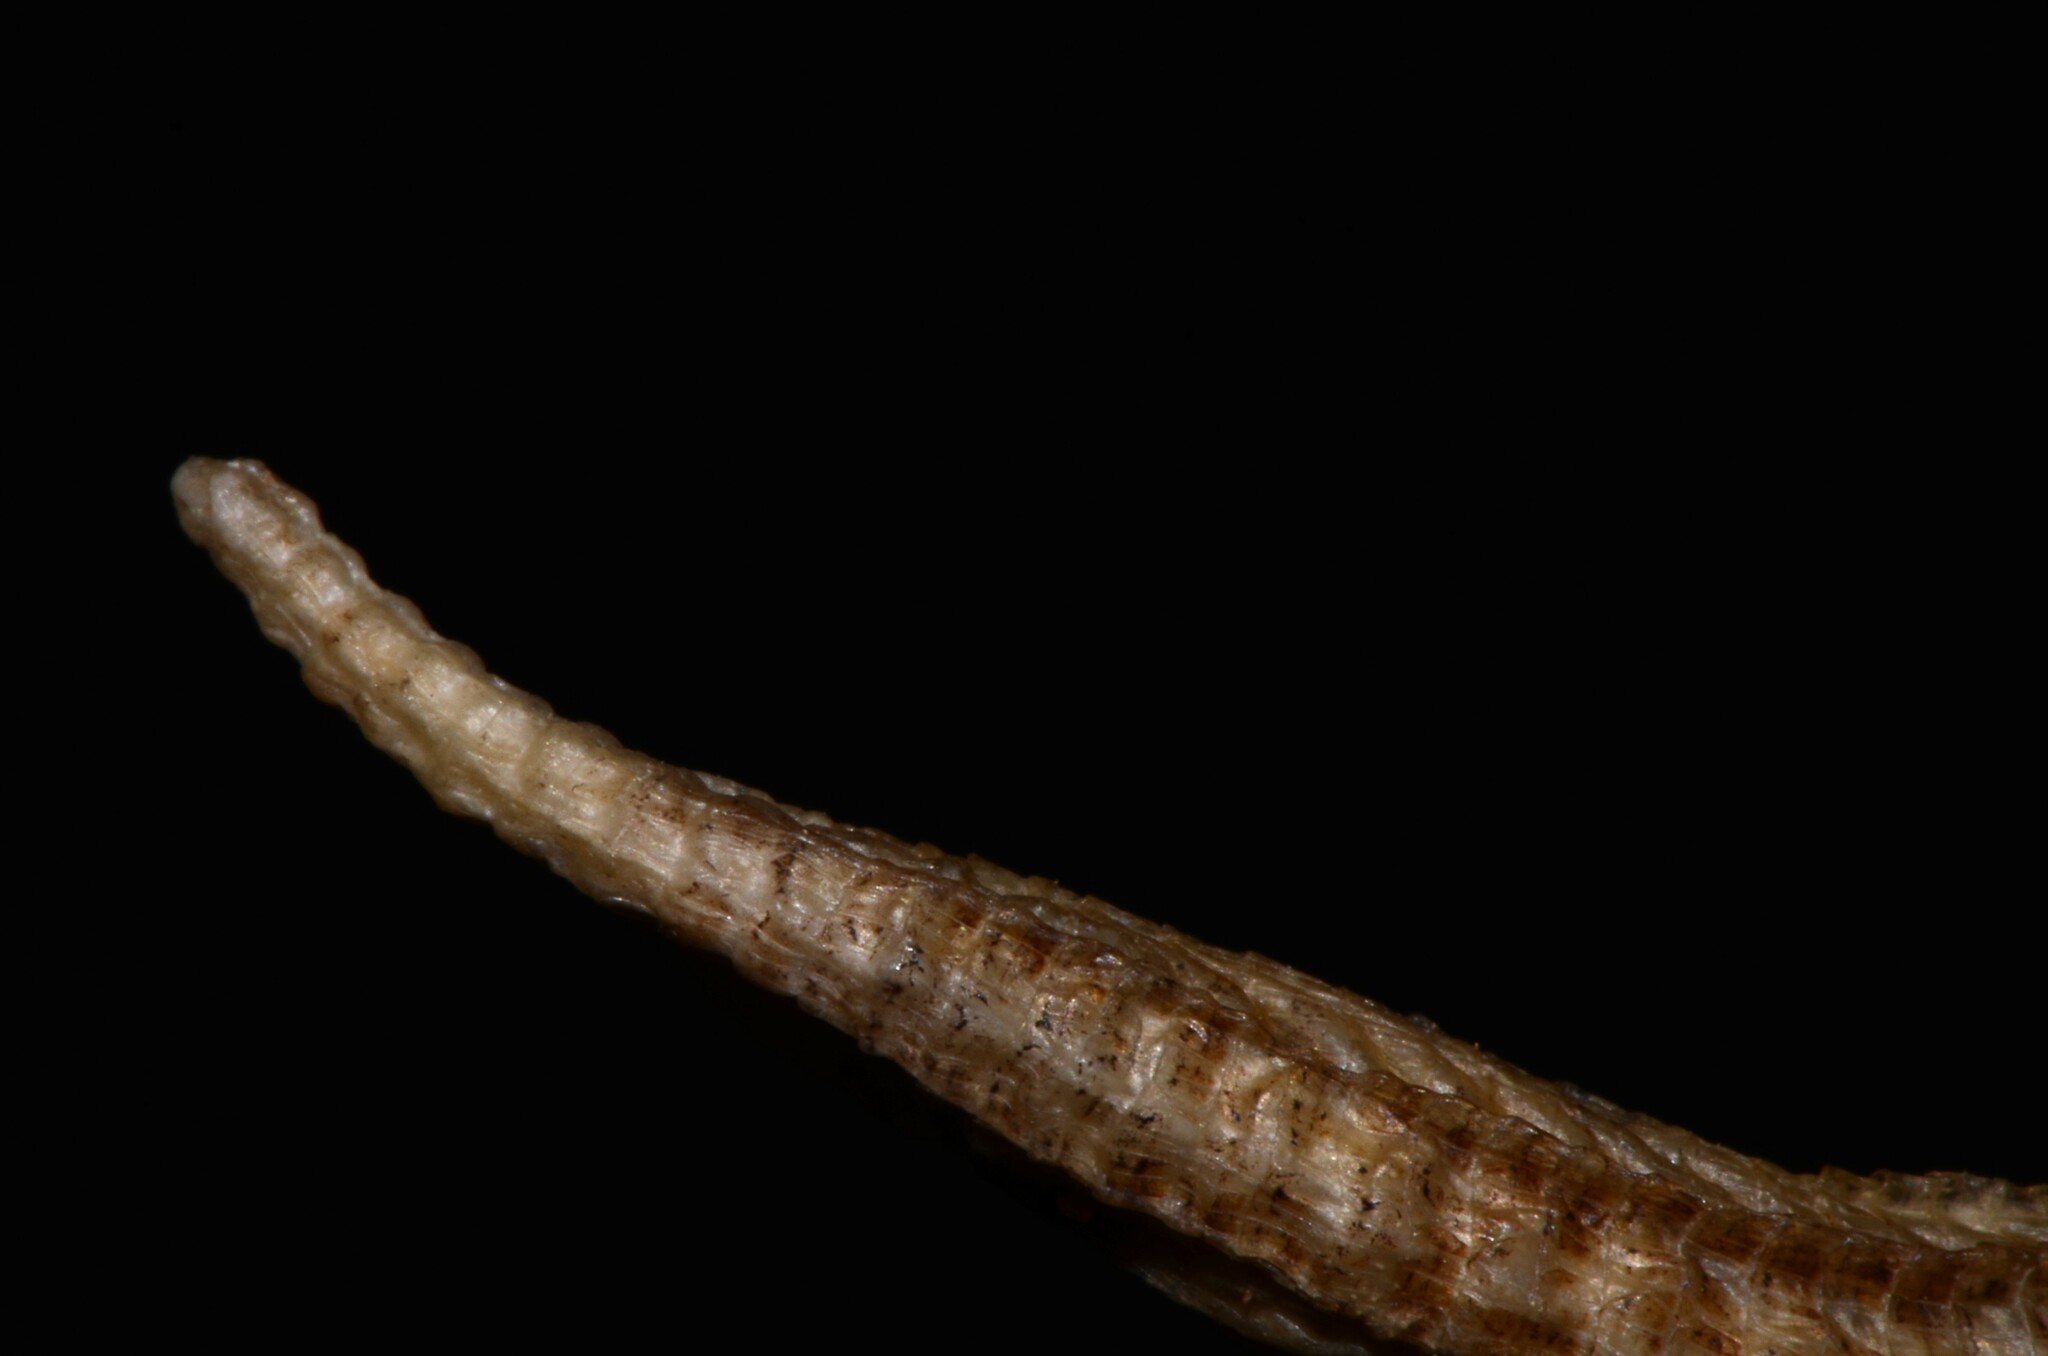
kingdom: Animalia
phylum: Chordata
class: Squamata
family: Trogonophidae
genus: Diplometopon
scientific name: Diplometopon zarudnyi
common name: Zarudnyi's worm lizard
